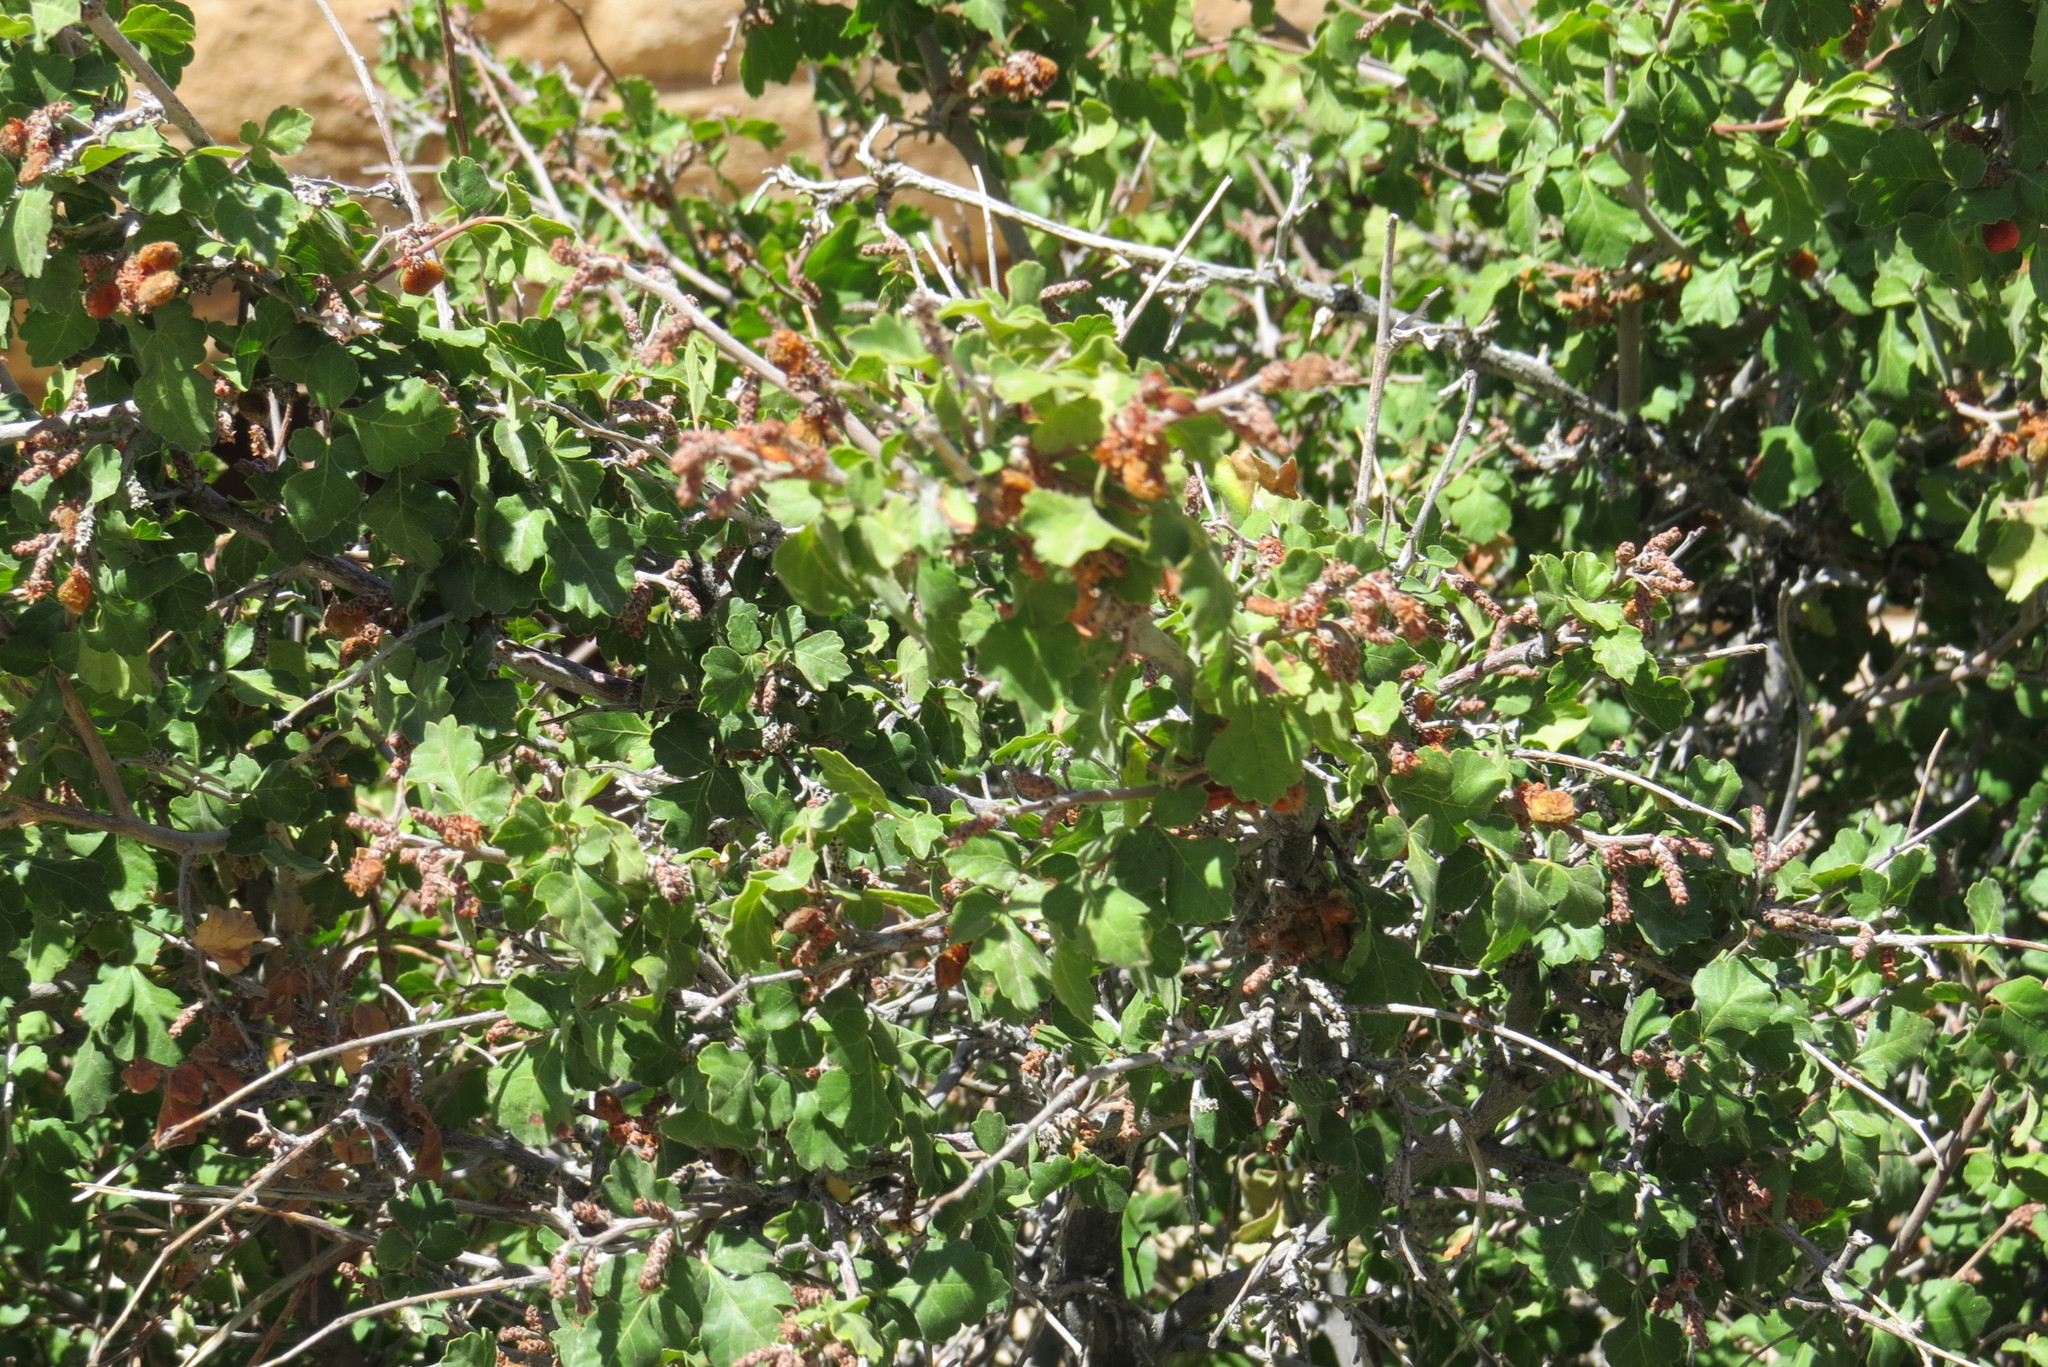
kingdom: Plantae
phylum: Tracheophyta
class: Magnoliopsida
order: Sapindales
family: Anacardiaceae
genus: Rhus
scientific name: Rhus aromatica
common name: Aromatic sumac
